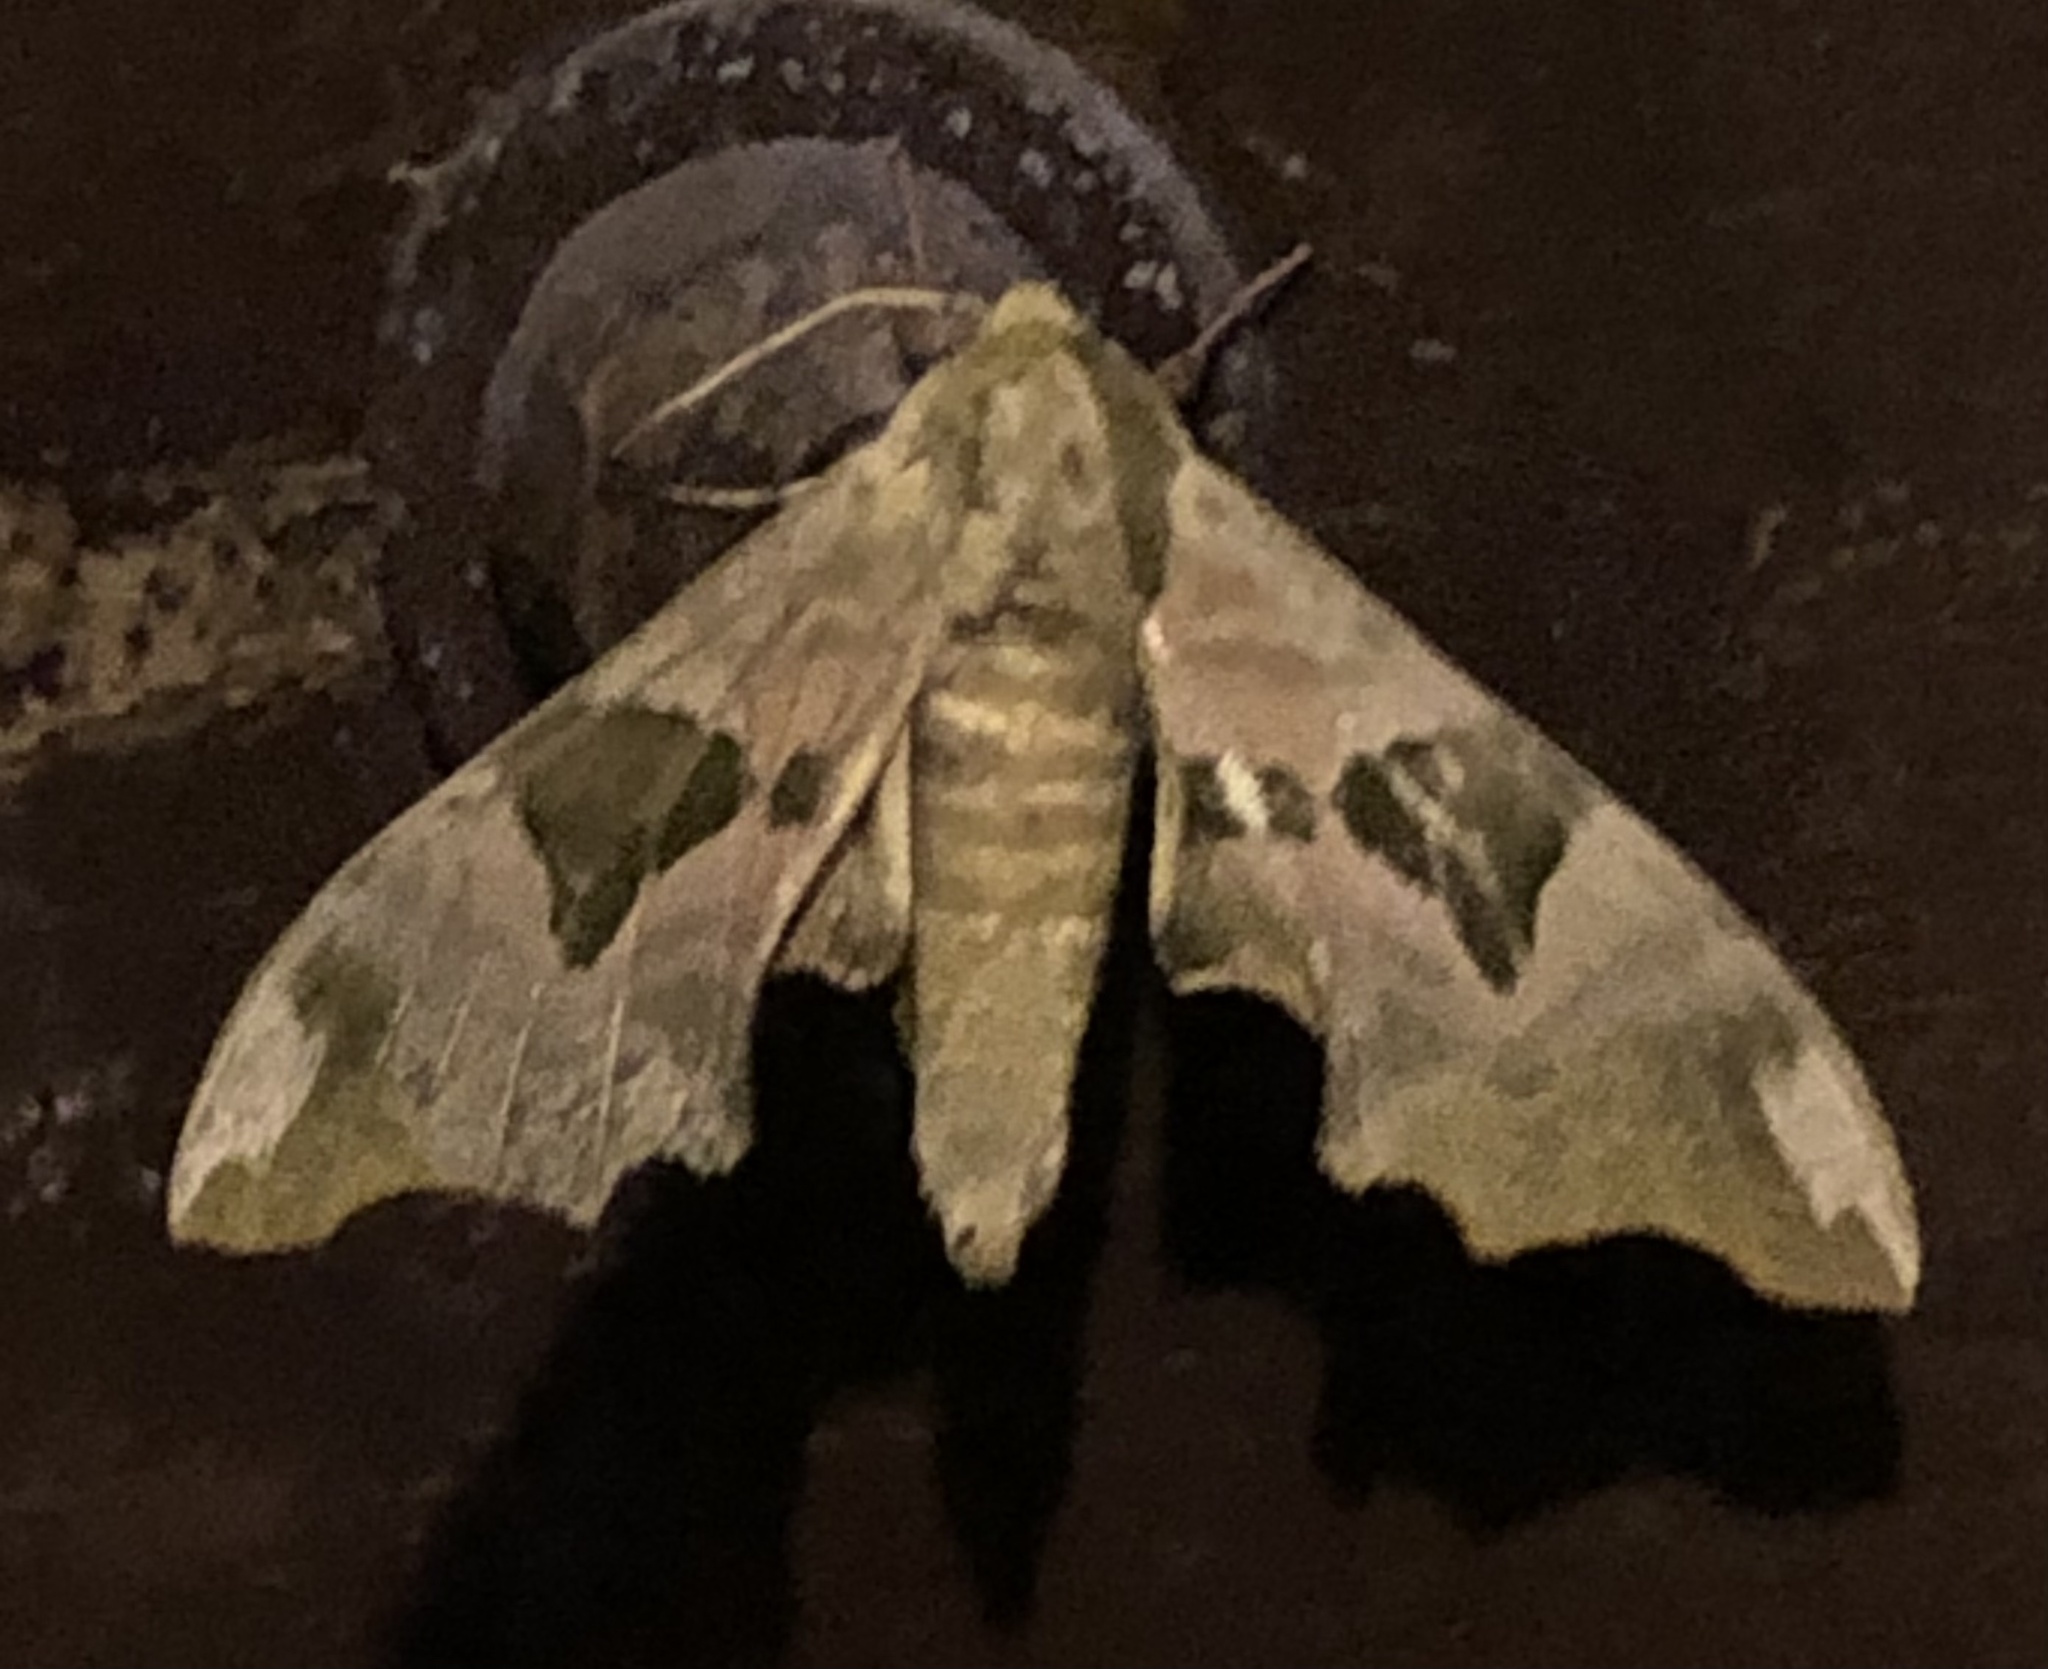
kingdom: Animalia
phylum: Arthropoda
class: Insecta
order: Lepidoptera
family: Sphingidae
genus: Mimas
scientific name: Mimas tiliae
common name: Lime hawk-moth
